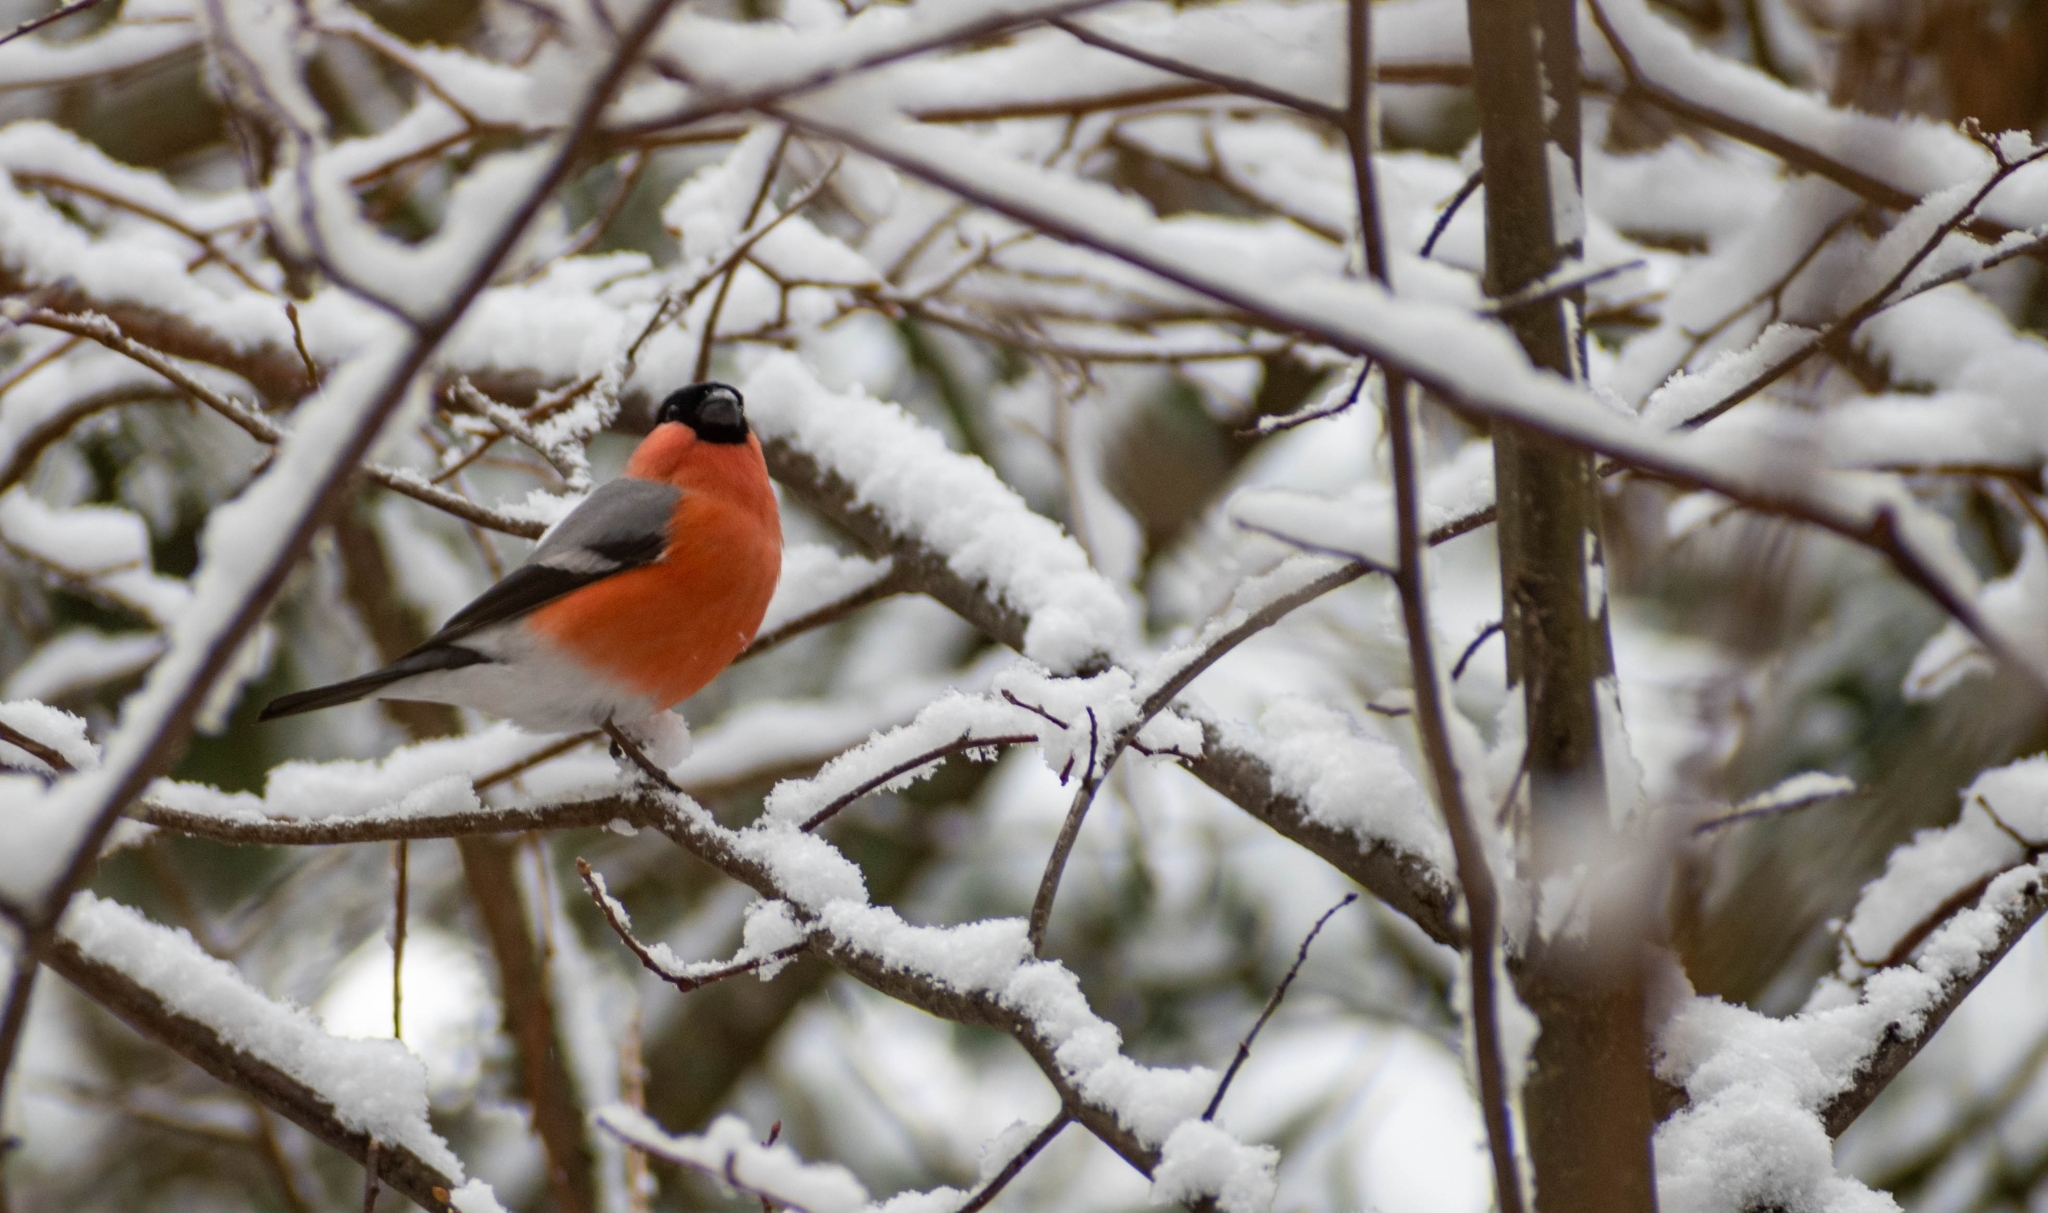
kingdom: Animalia
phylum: Chordata
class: Aves
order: Passeriformes
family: Fringillidae
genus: Pyrrhula
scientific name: Pyrrhula pyrrhula
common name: Eurasian bullfinch
